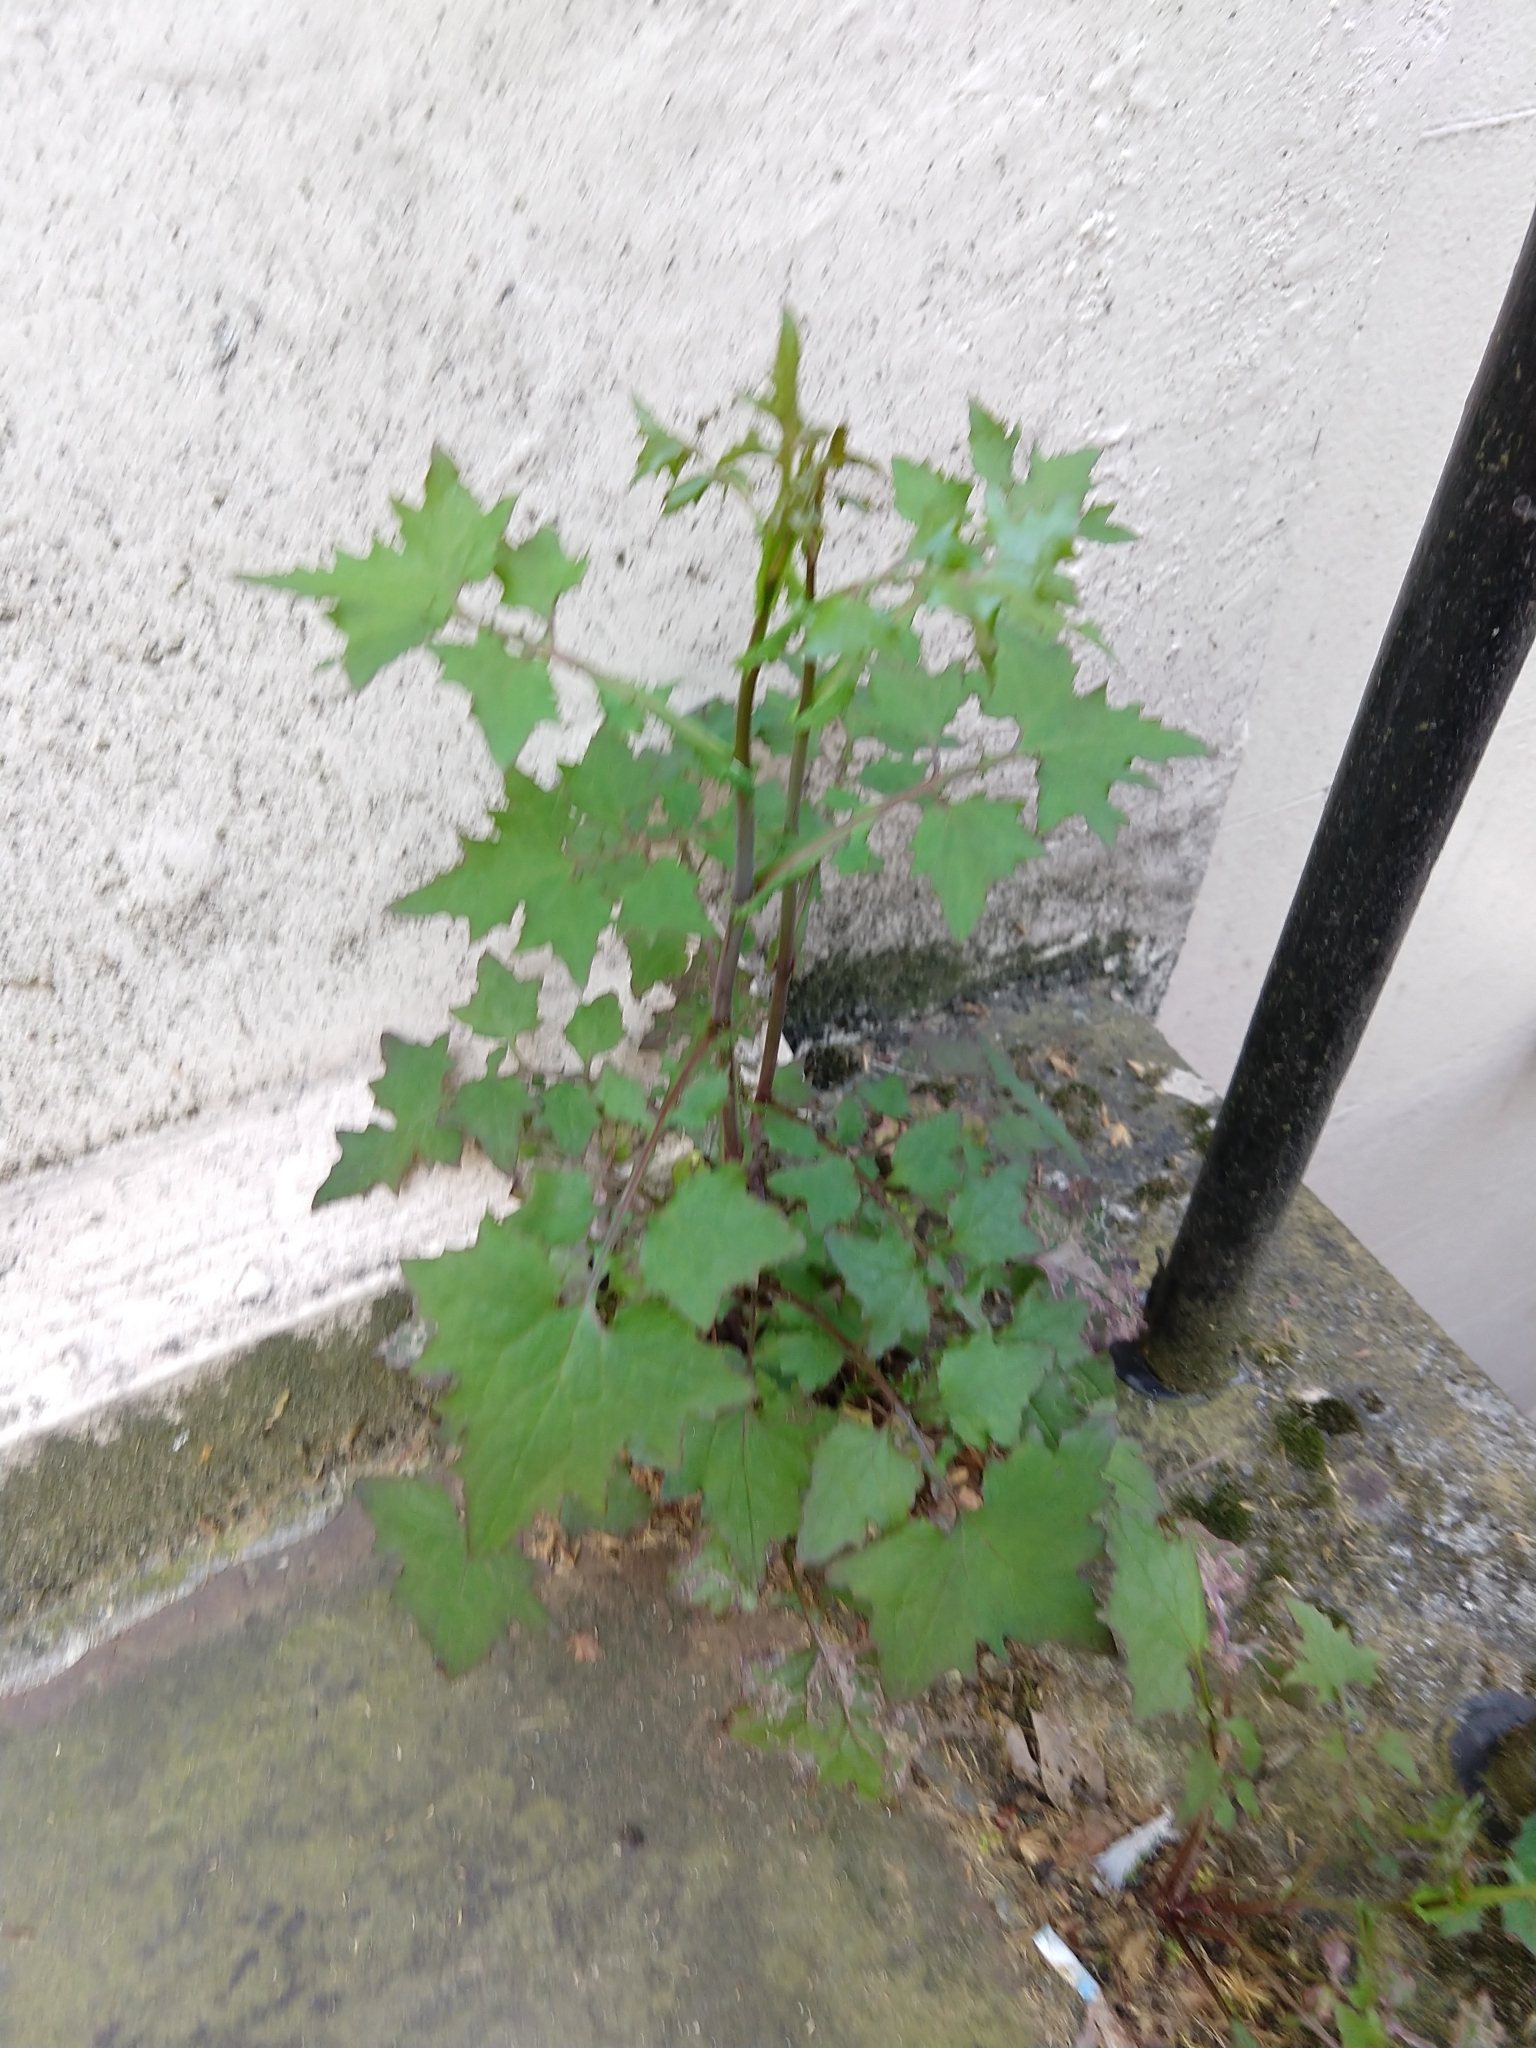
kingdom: Plantae
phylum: Tracheophyta
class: Magnoliopsida
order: Asterales
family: Asteraceae
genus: Mycelis
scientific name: Mycelis muralis
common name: Wall lettuce
